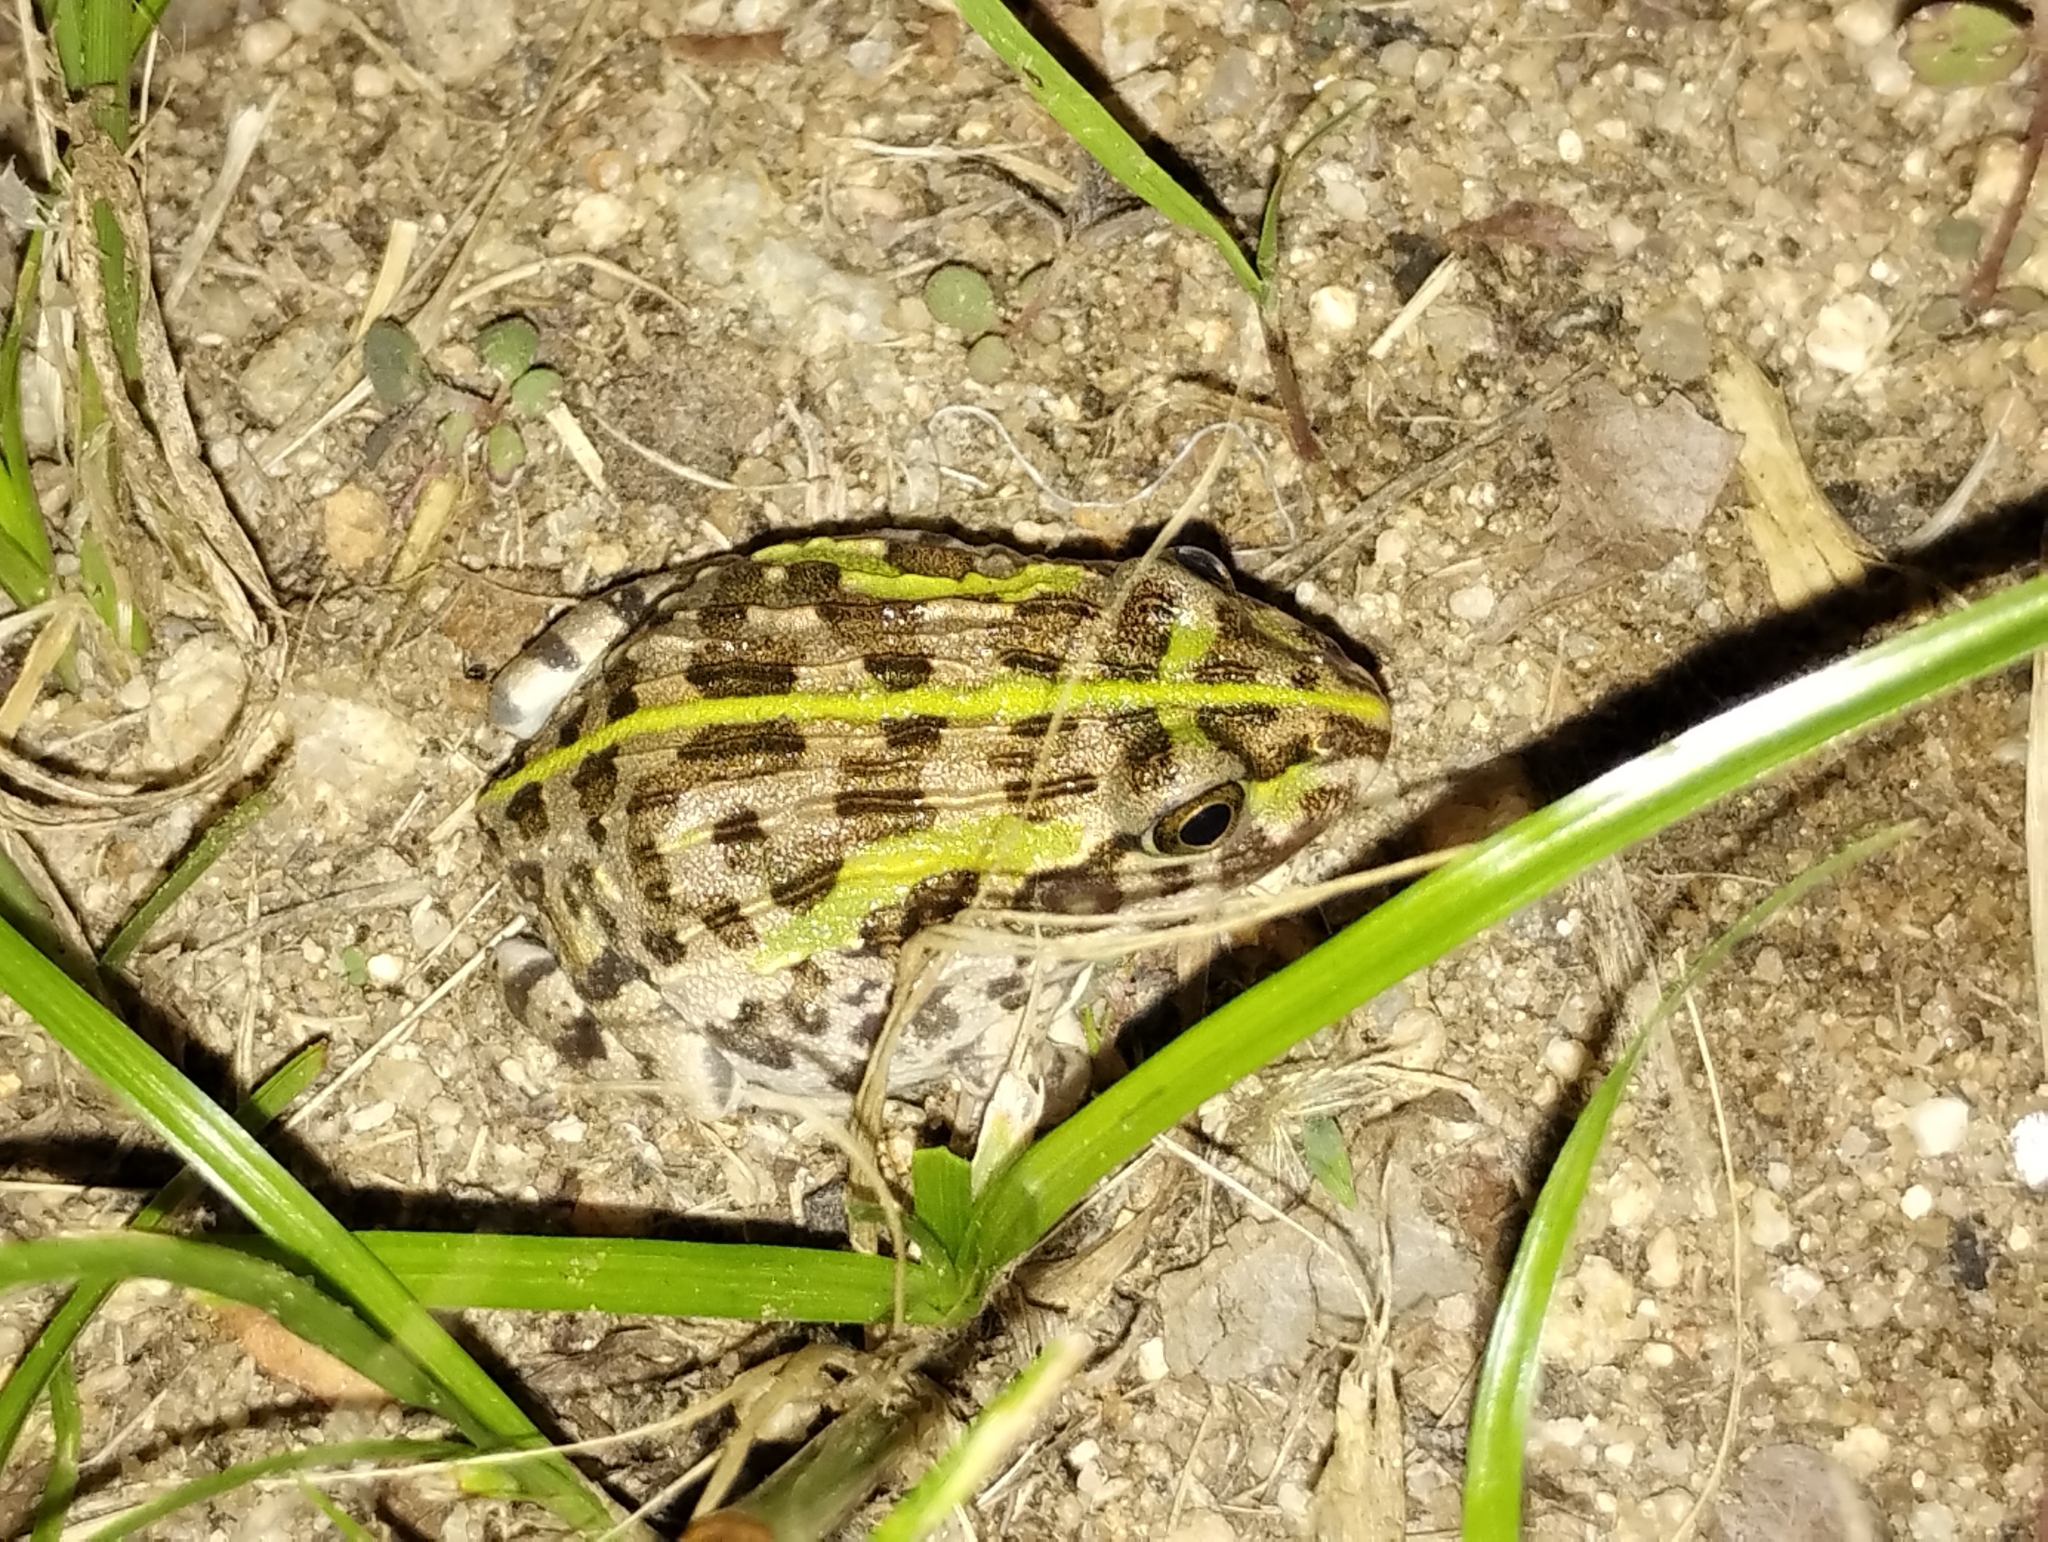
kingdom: Animalia
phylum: Chordata
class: Amphibia
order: Anura
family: Pyxicephalidae
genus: Pyxicephalus
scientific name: Pyxicephalus edulis
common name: Peter's bullfrog
